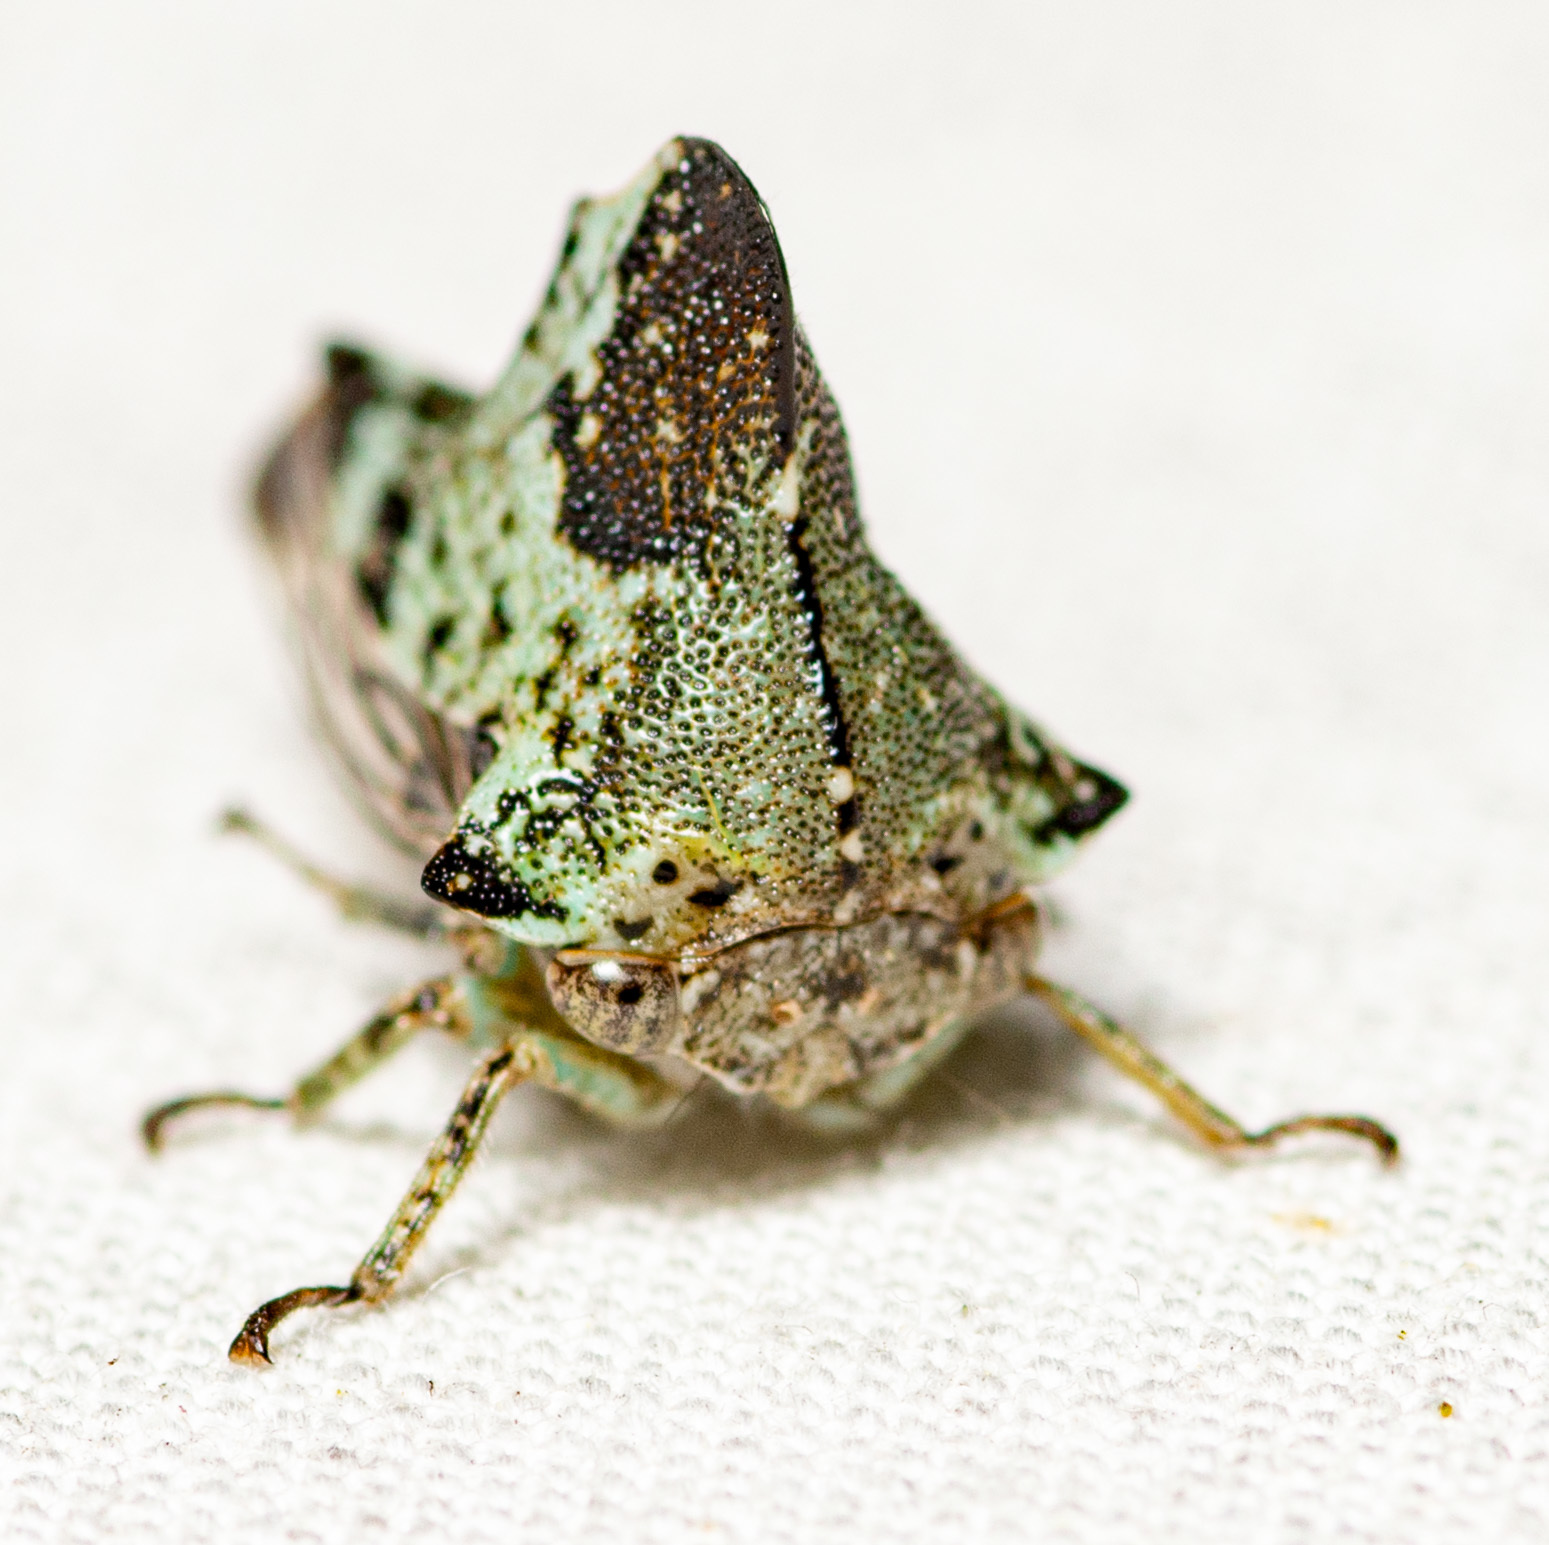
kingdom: Animalia
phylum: Arthropoda
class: Insecta
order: Hemiptera
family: Membracidae
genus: Telamona
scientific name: Telamona concava
